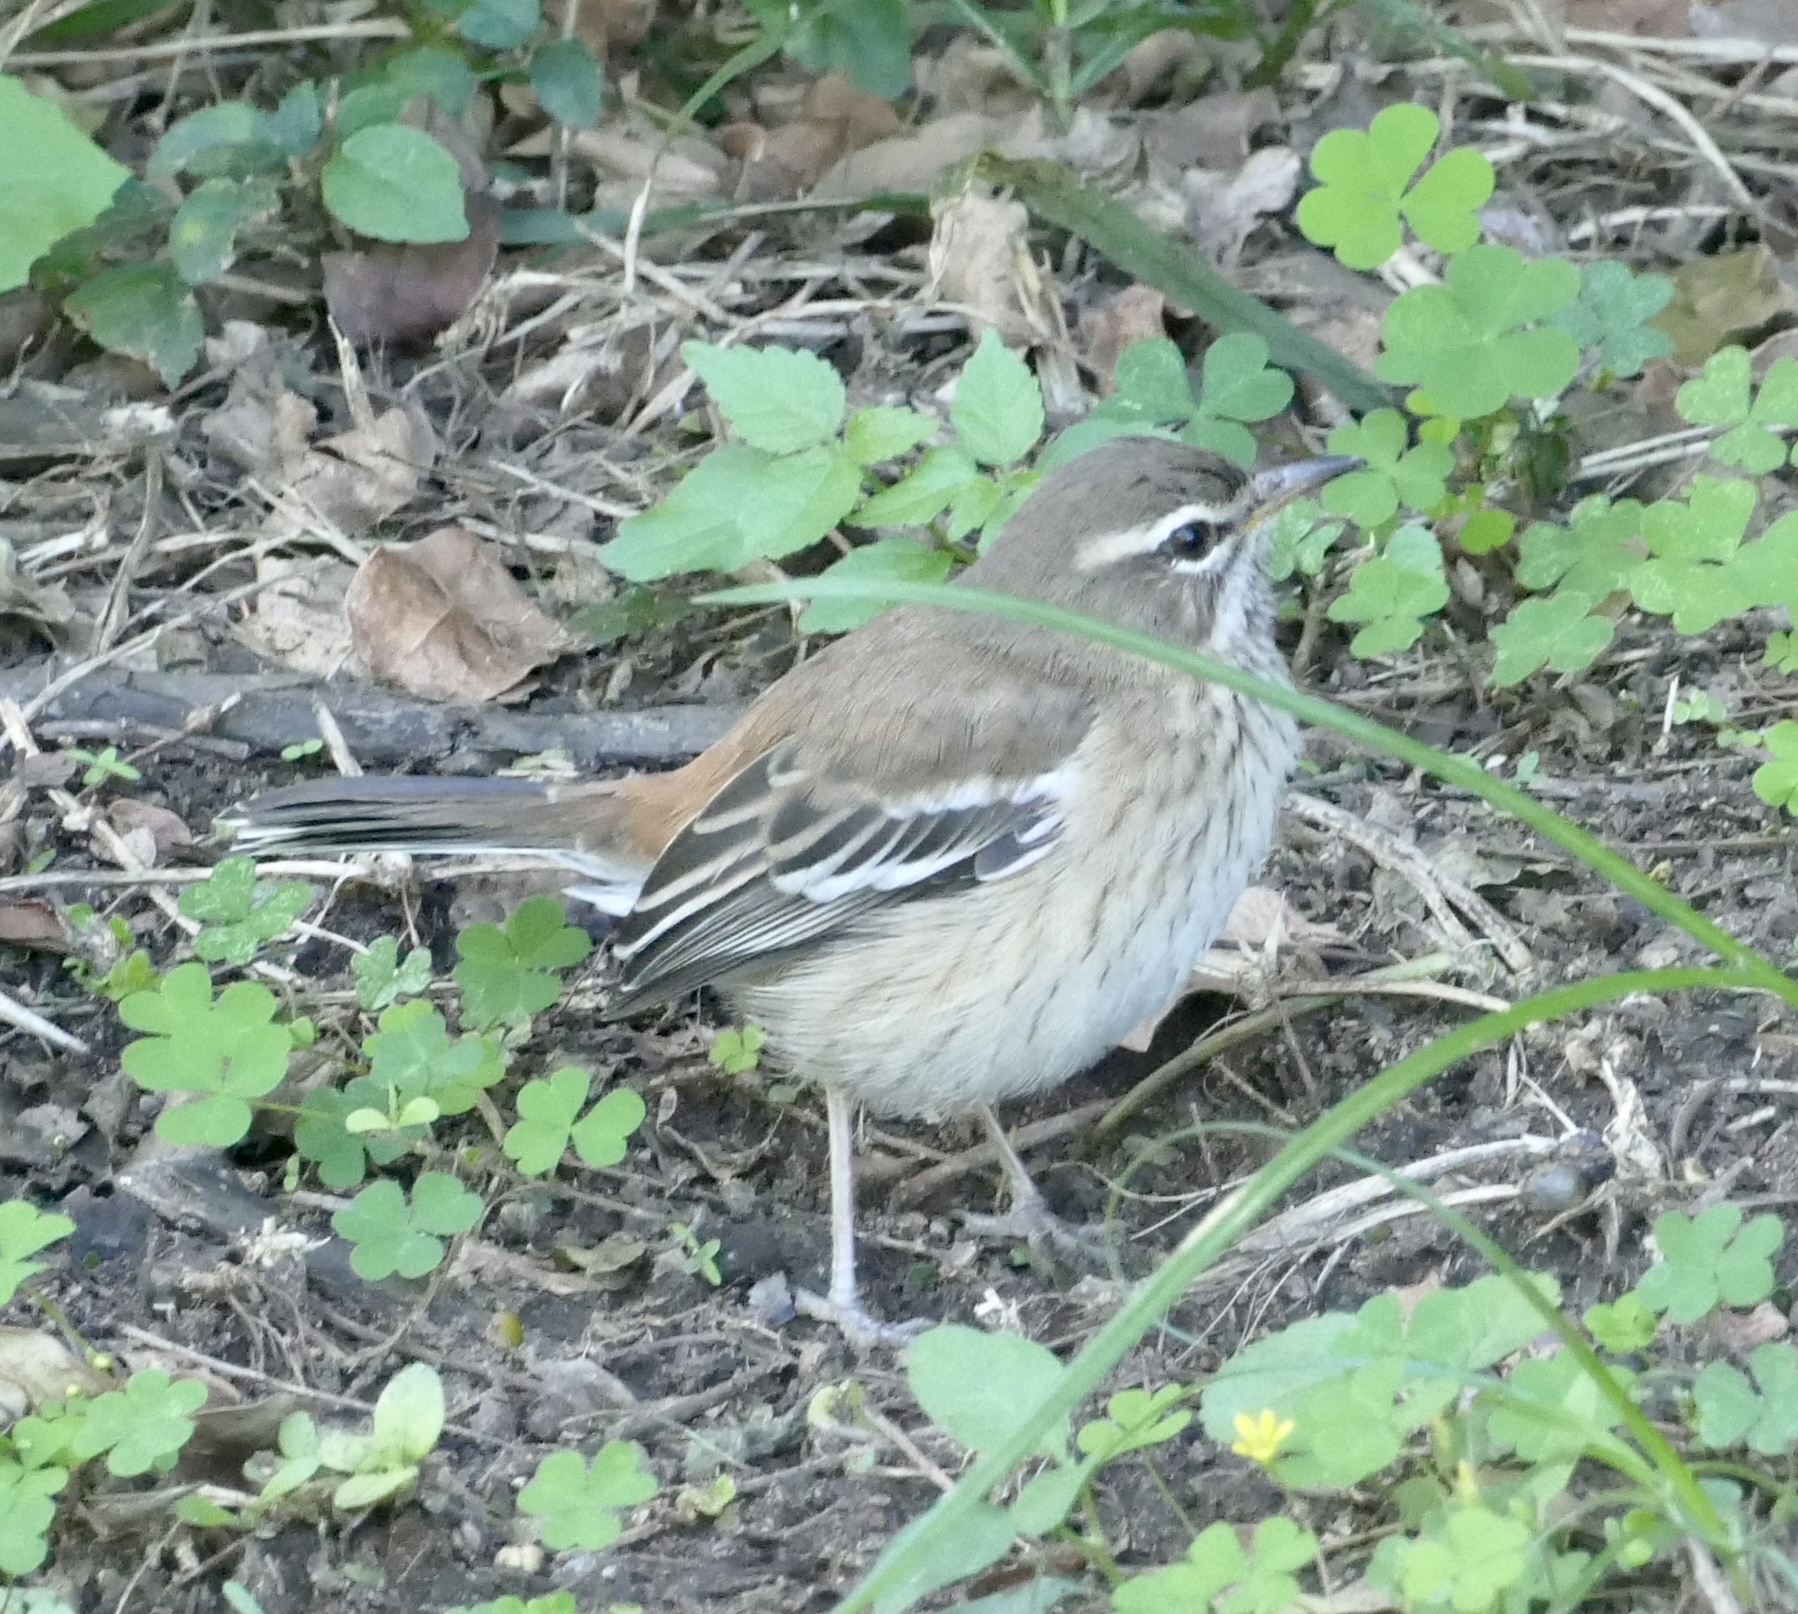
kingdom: Animalia
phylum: Chordata
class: Aves
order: Passeriformes
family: Muscicapidae
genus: Erythropygia
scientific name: Erythropygia leucophrys
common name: White-browed scrub robin
